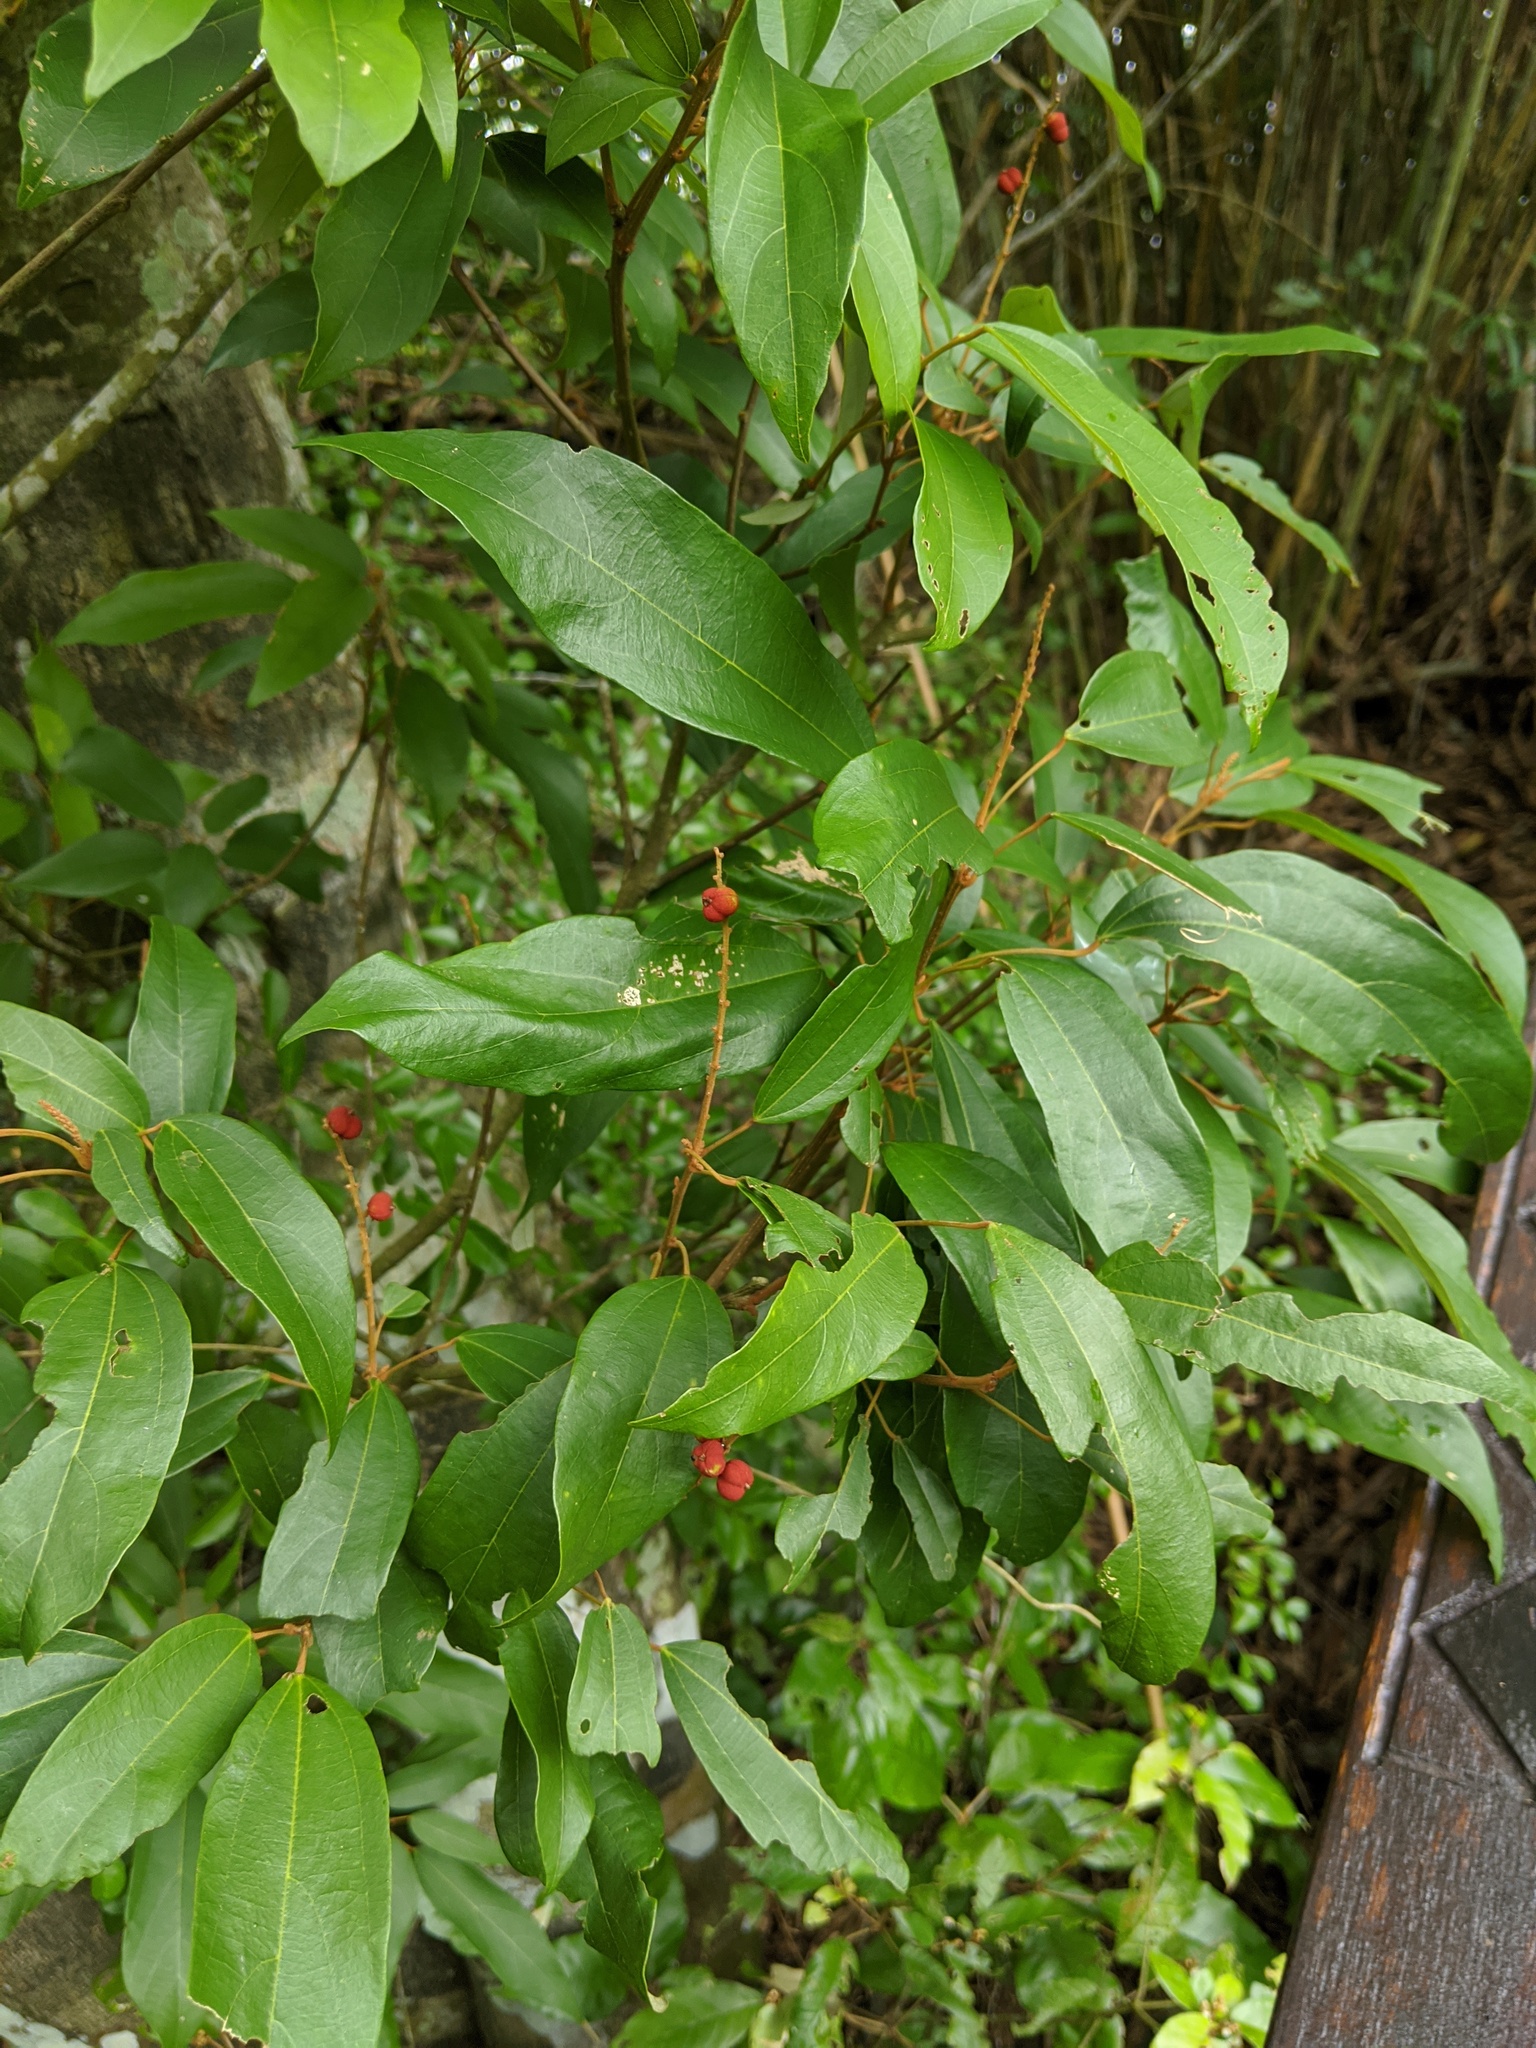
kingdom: Plantae
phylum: Tracheophyta
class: Magnoliopsida
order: Malpighiales
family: Euphorbiaceae
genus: Mallotus
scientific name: Mallotus philippensis
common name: Kamala tree
